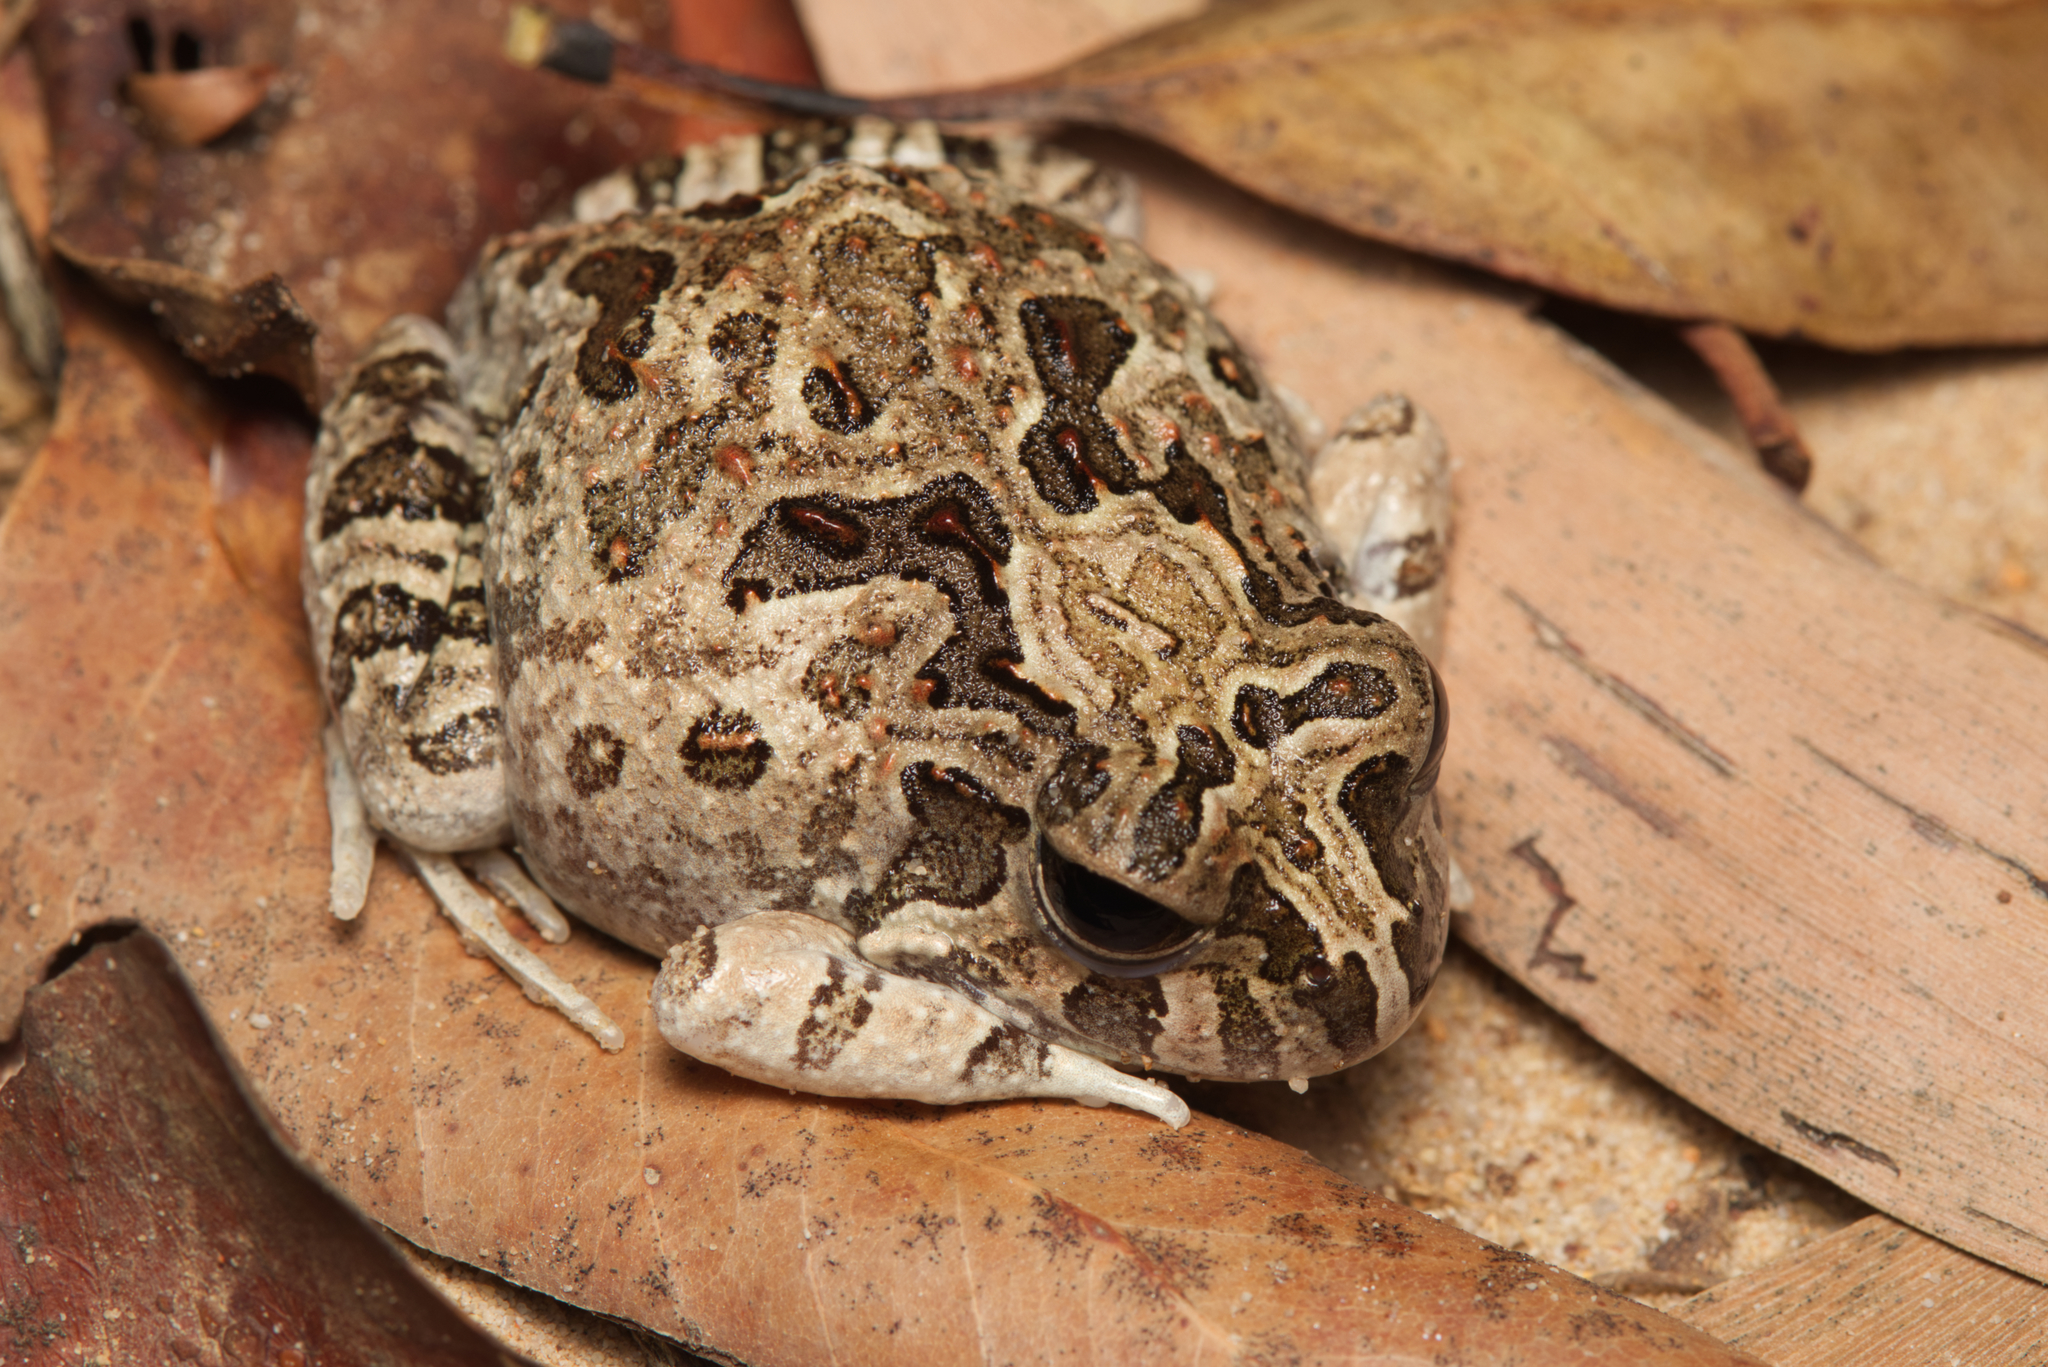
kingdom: Animalia
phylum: Chordata
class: Amphibia
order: Anura
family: Limnodynastidae
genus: Platyplectrum
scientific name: Platyplectrum ornatum
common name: Ornate burrowing frog
